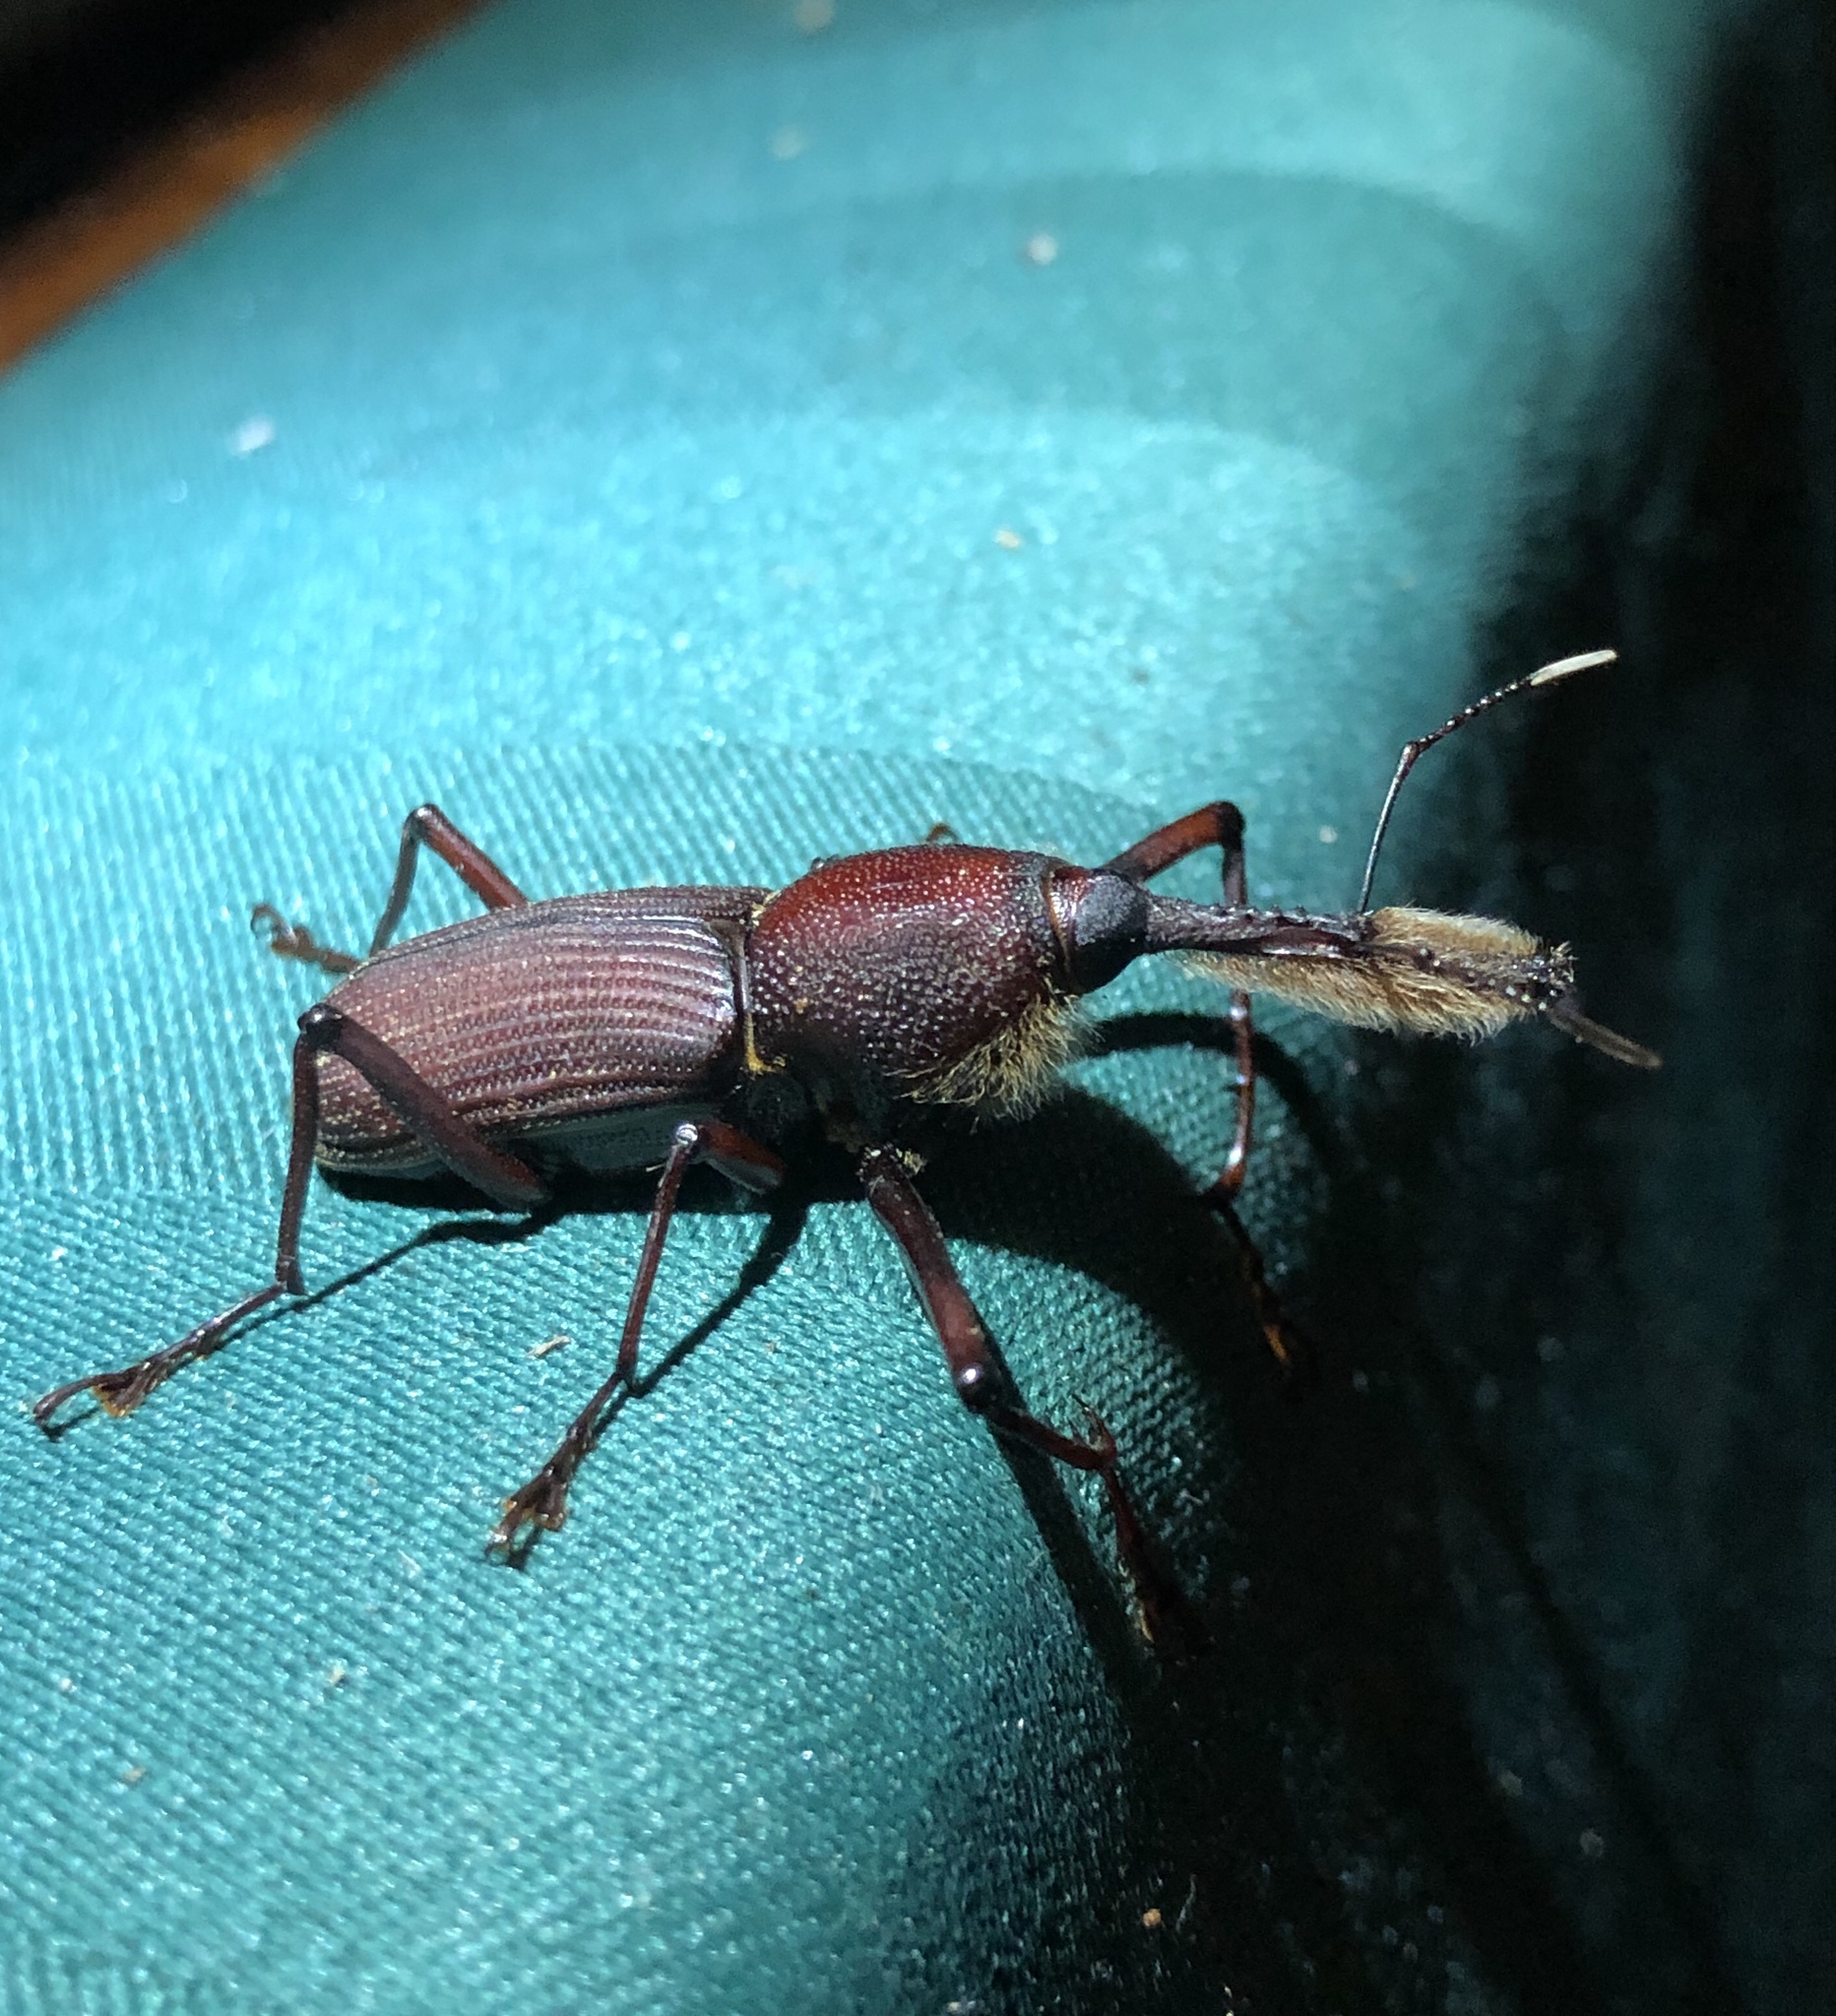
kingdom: Animalia
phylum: Arthropoda
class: Insecta
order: Coleoptera
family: Dryophthoridae
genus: Rhinostomus
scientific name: Rhinostomus barbirostris
